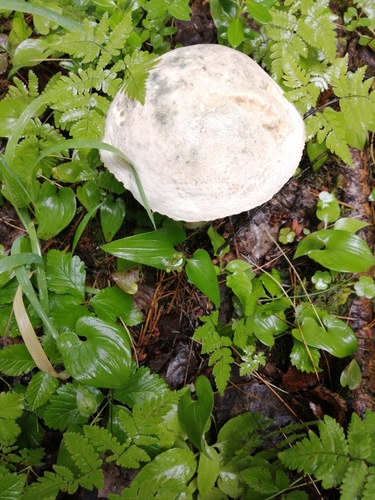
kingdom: Fungi
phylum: Basidiomycota
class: Agaricomycetes
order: Boletales
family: Boletaceae
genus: Leccinum
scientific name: Leccinum versipelle
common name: Orange birch bolete
